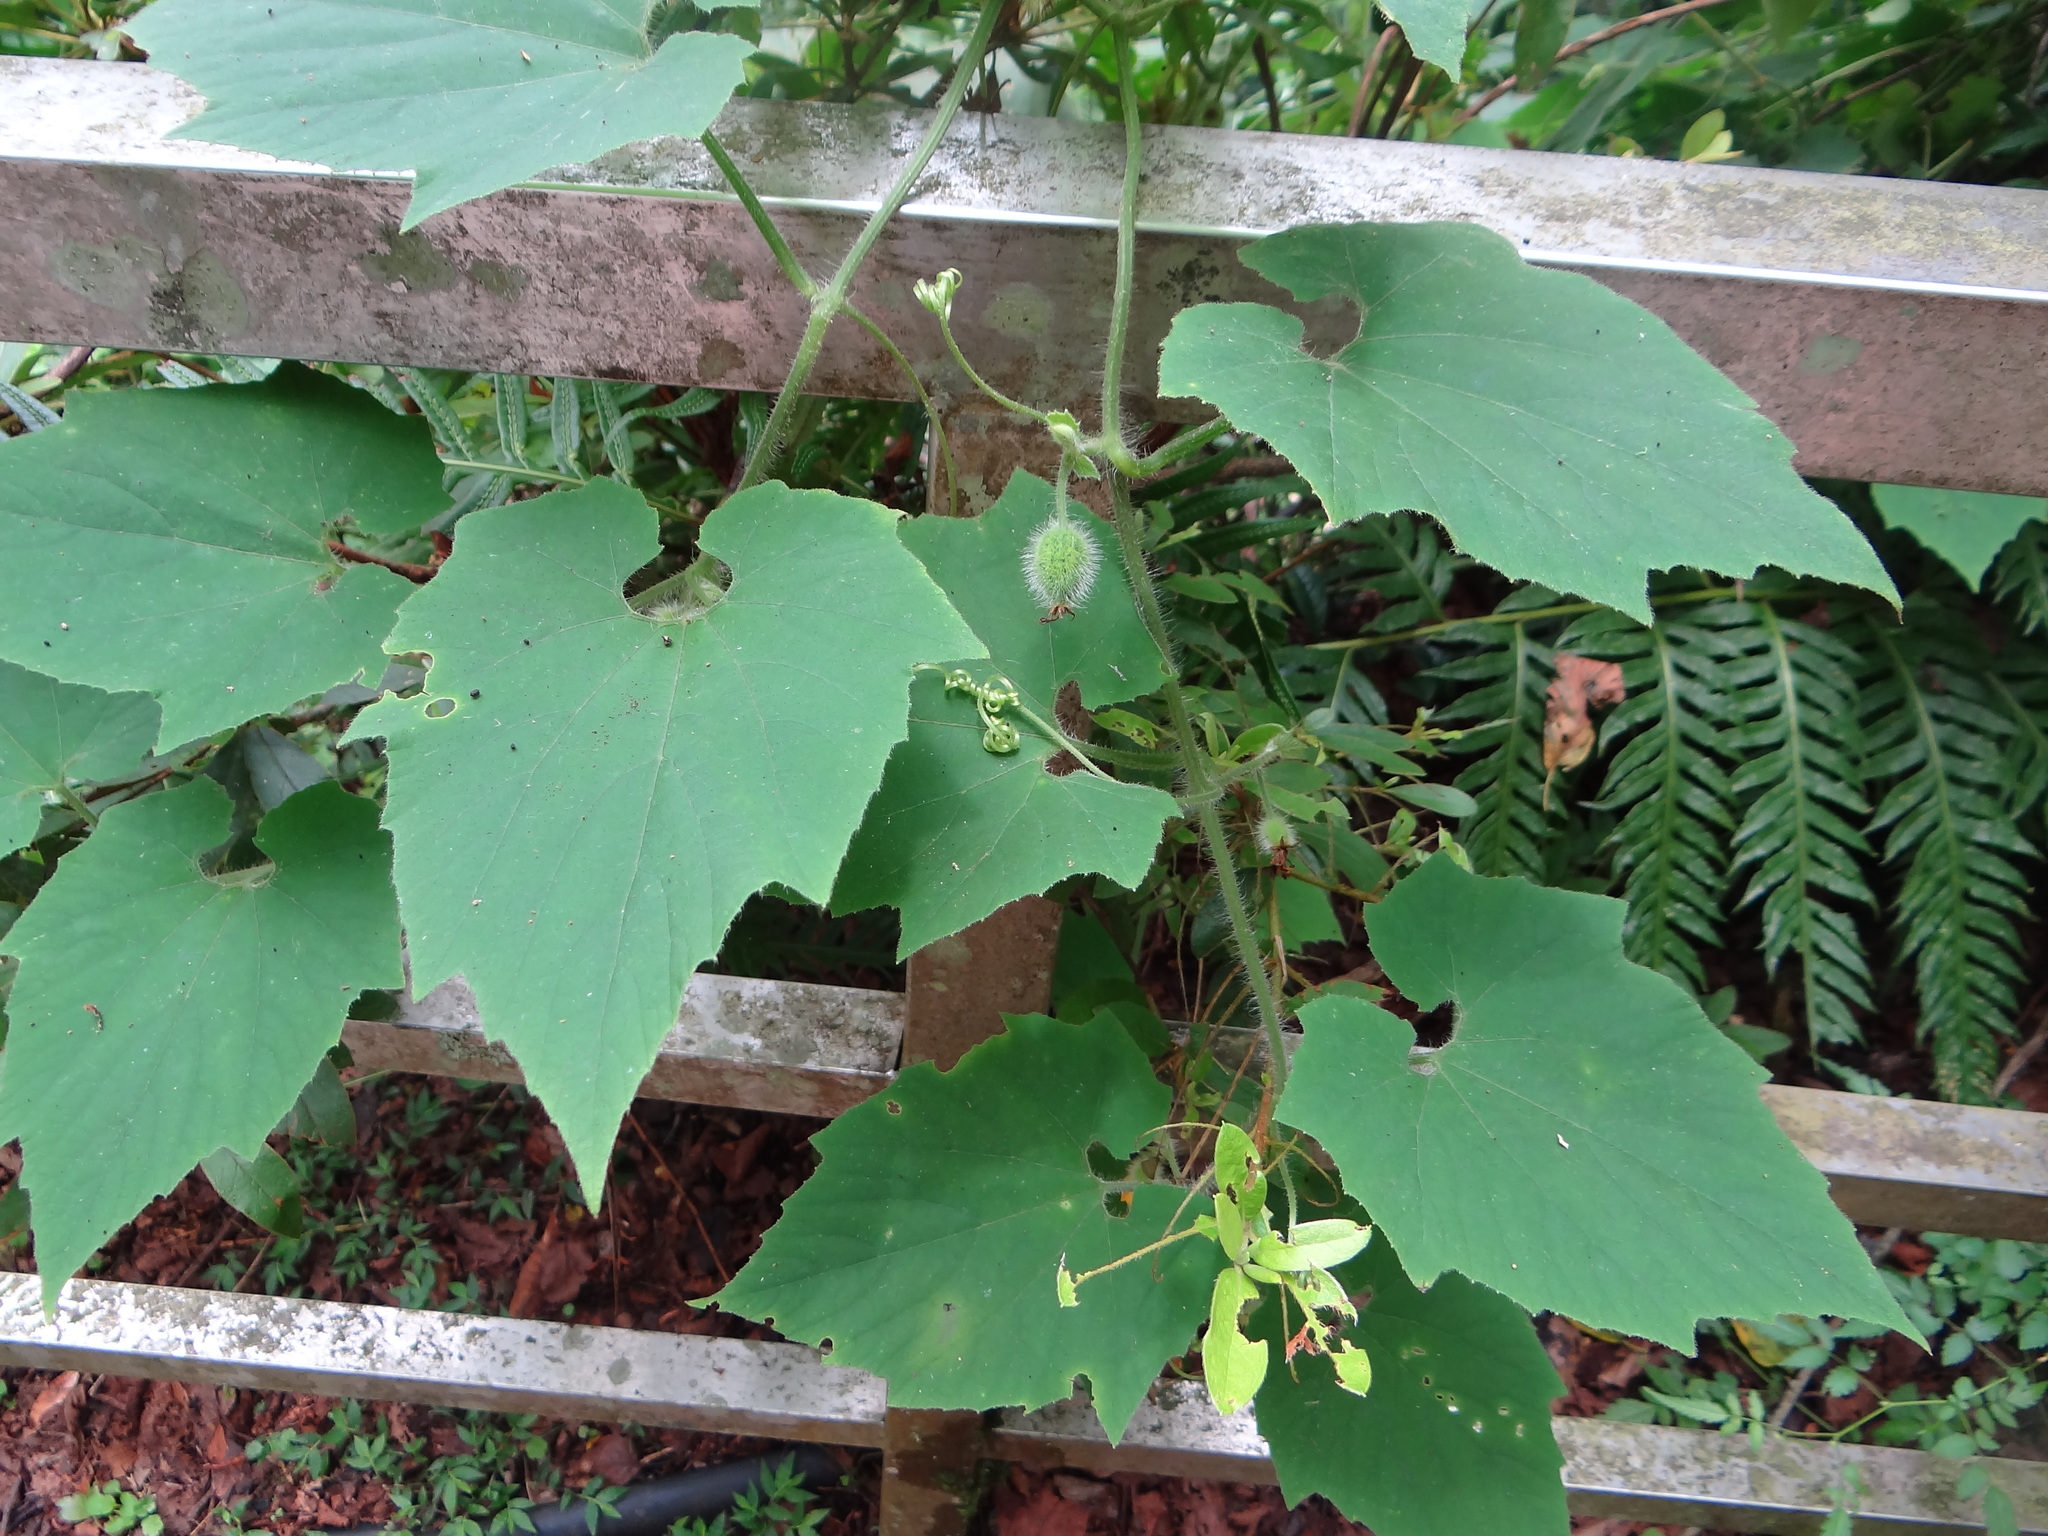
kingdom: Plantae
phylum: Tracheophyta
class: Magnoliopsida
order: Cucurbitales
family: Cucurbitaceae
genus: Thladiantha
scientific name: Thladiantha nudiflora
